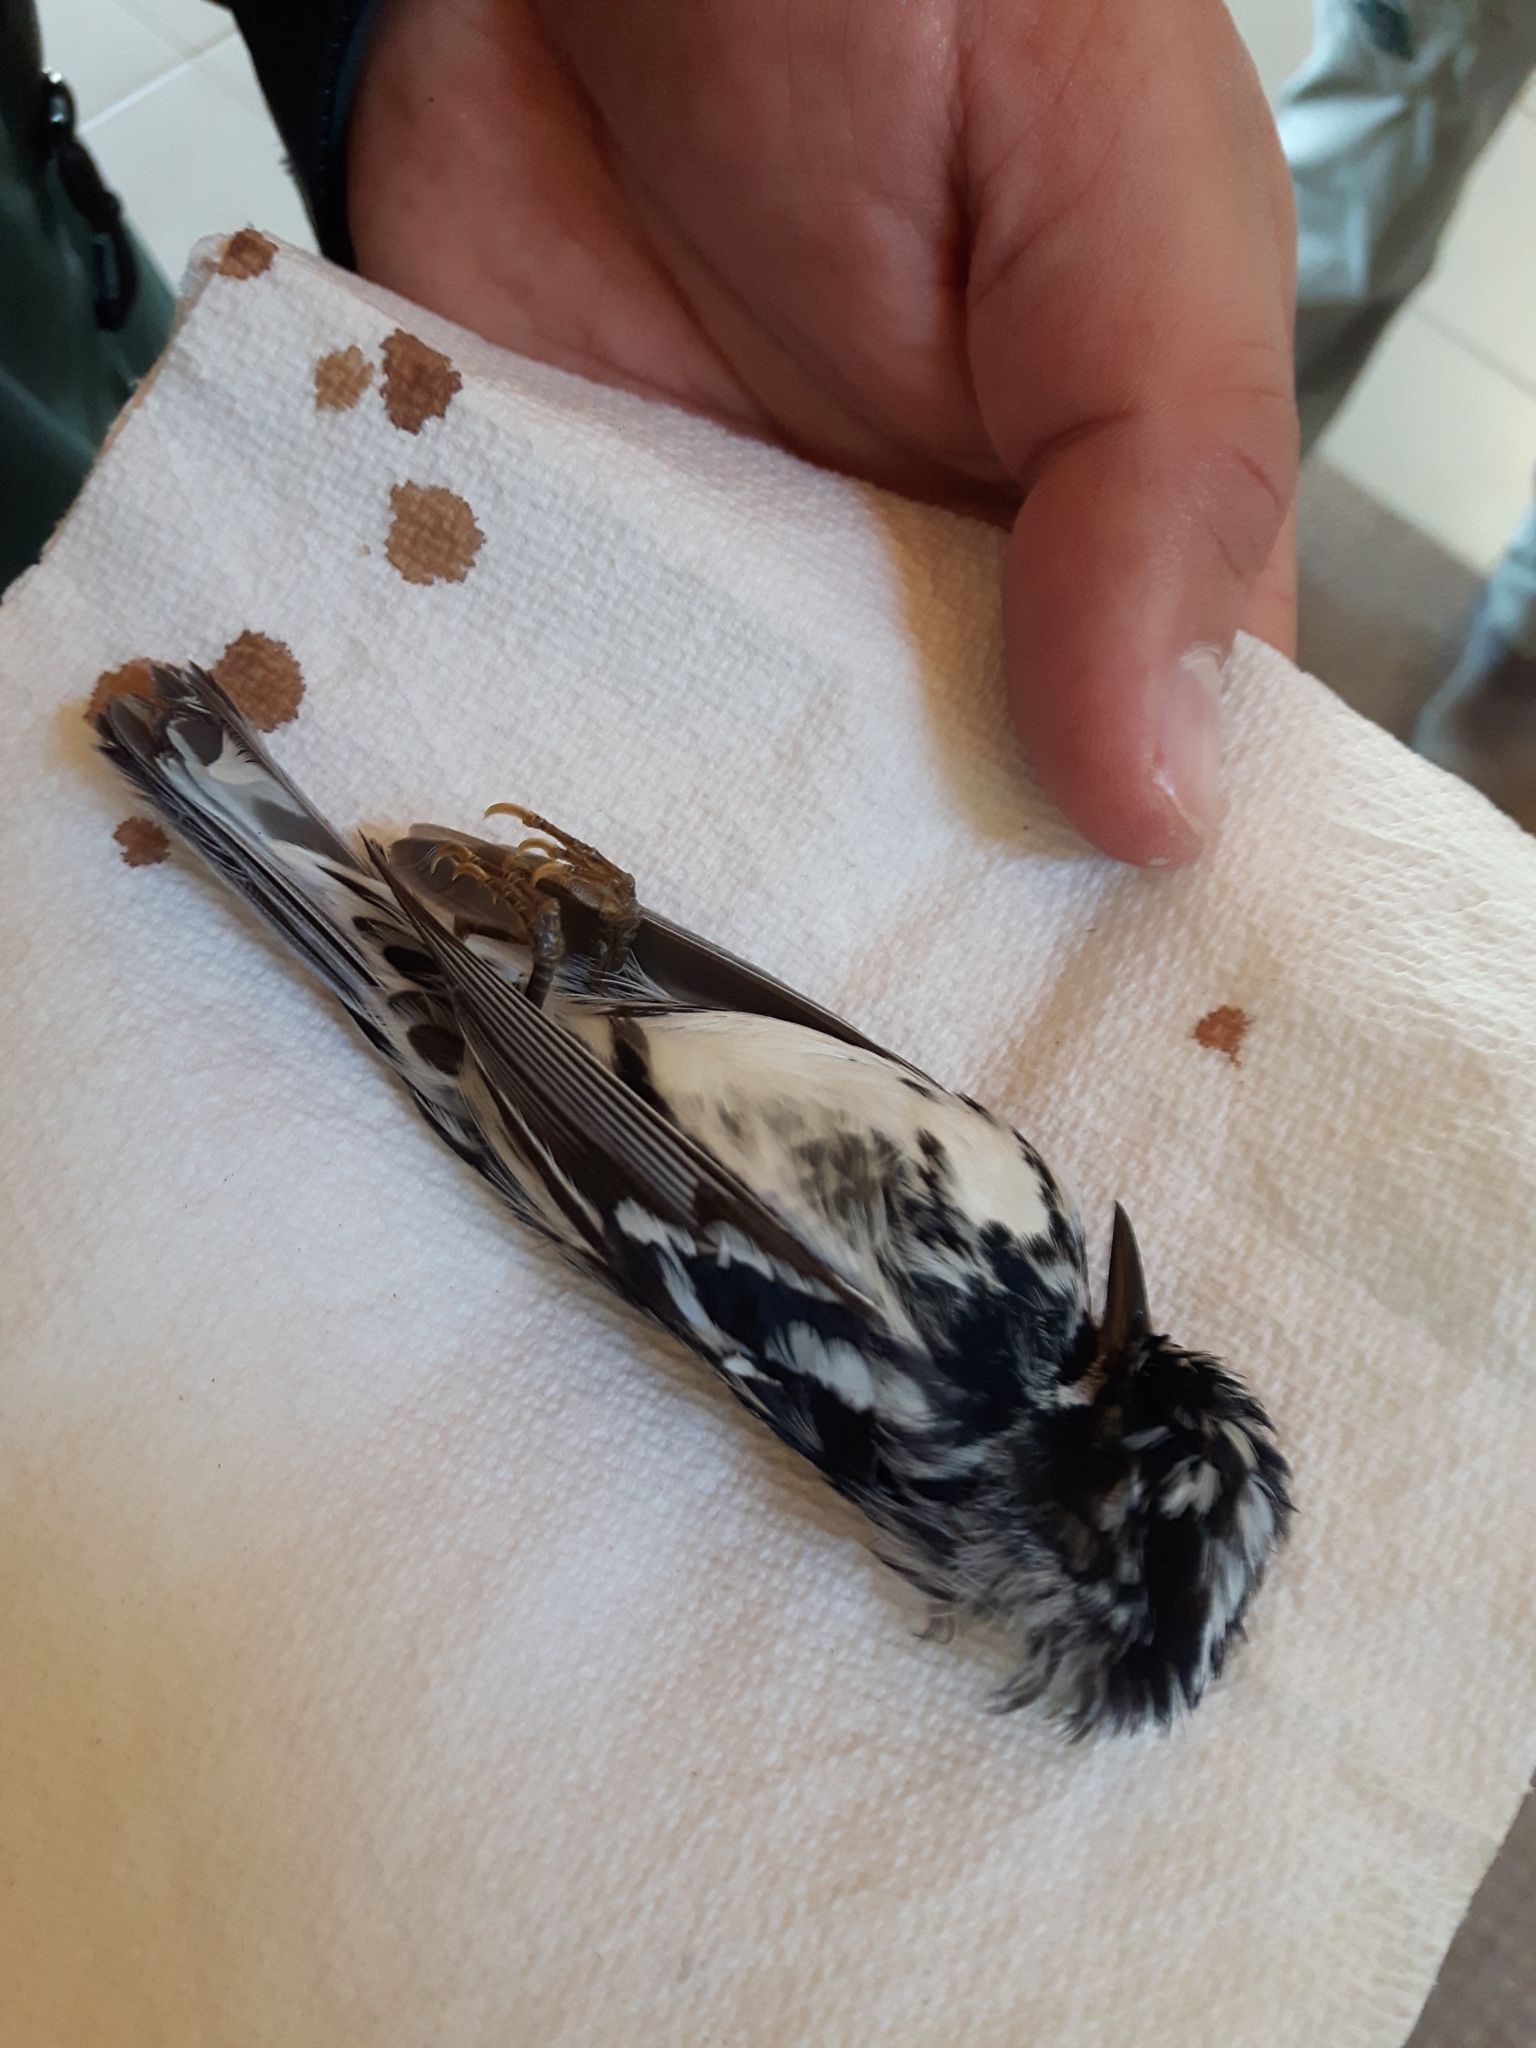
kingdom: Animalia
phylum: Chordata
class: Aves
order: Passeriformes
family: Parulidae
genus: Mniotilta
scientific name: Mniotilta varia
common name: Black-and-white warbler
